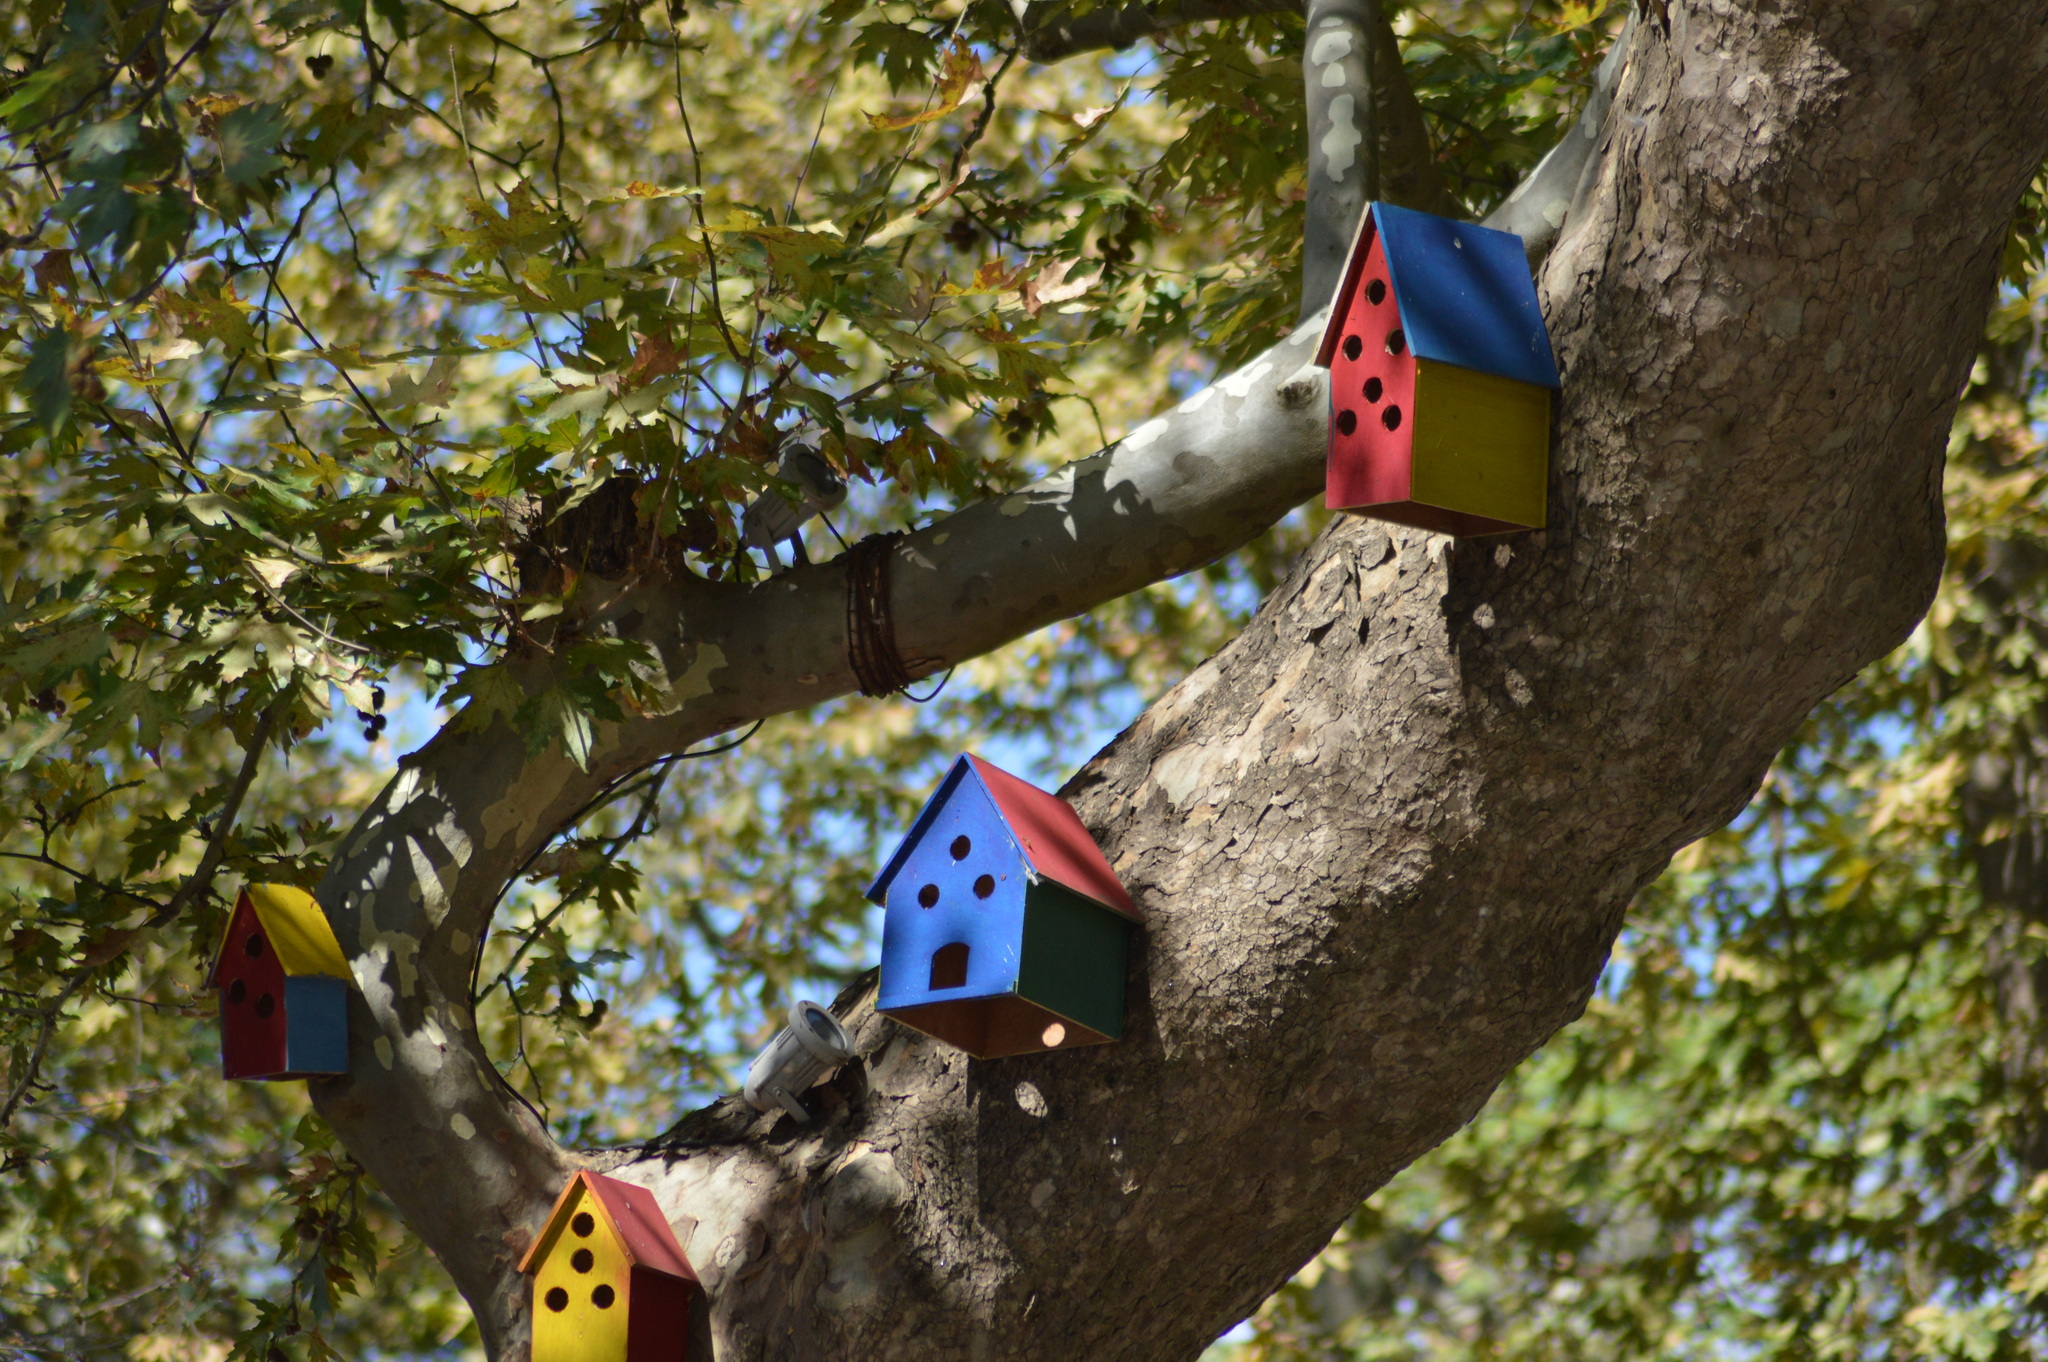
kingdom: Plantae
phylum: Tracheophyta
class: Magnoliopsida
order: Proteales
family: Platanaceae
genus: Platanus
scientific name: Platanus orientalis
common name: Oriental plane
